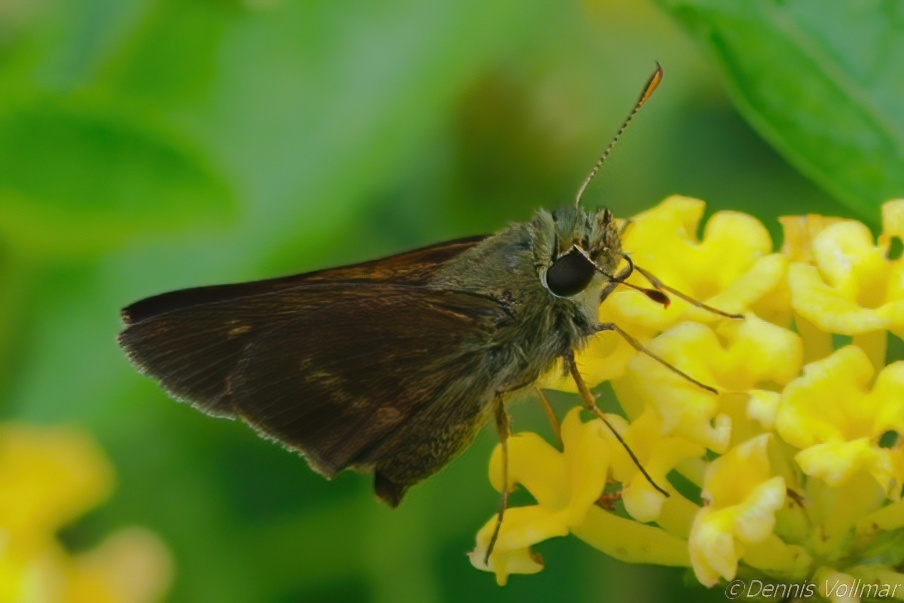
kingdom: Animalia
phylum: Arthropoda
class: Insecta
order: Lepidoptera
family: Hesperiidae
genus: Polites
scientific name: Polites egeremet
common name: Northern broken-dash
